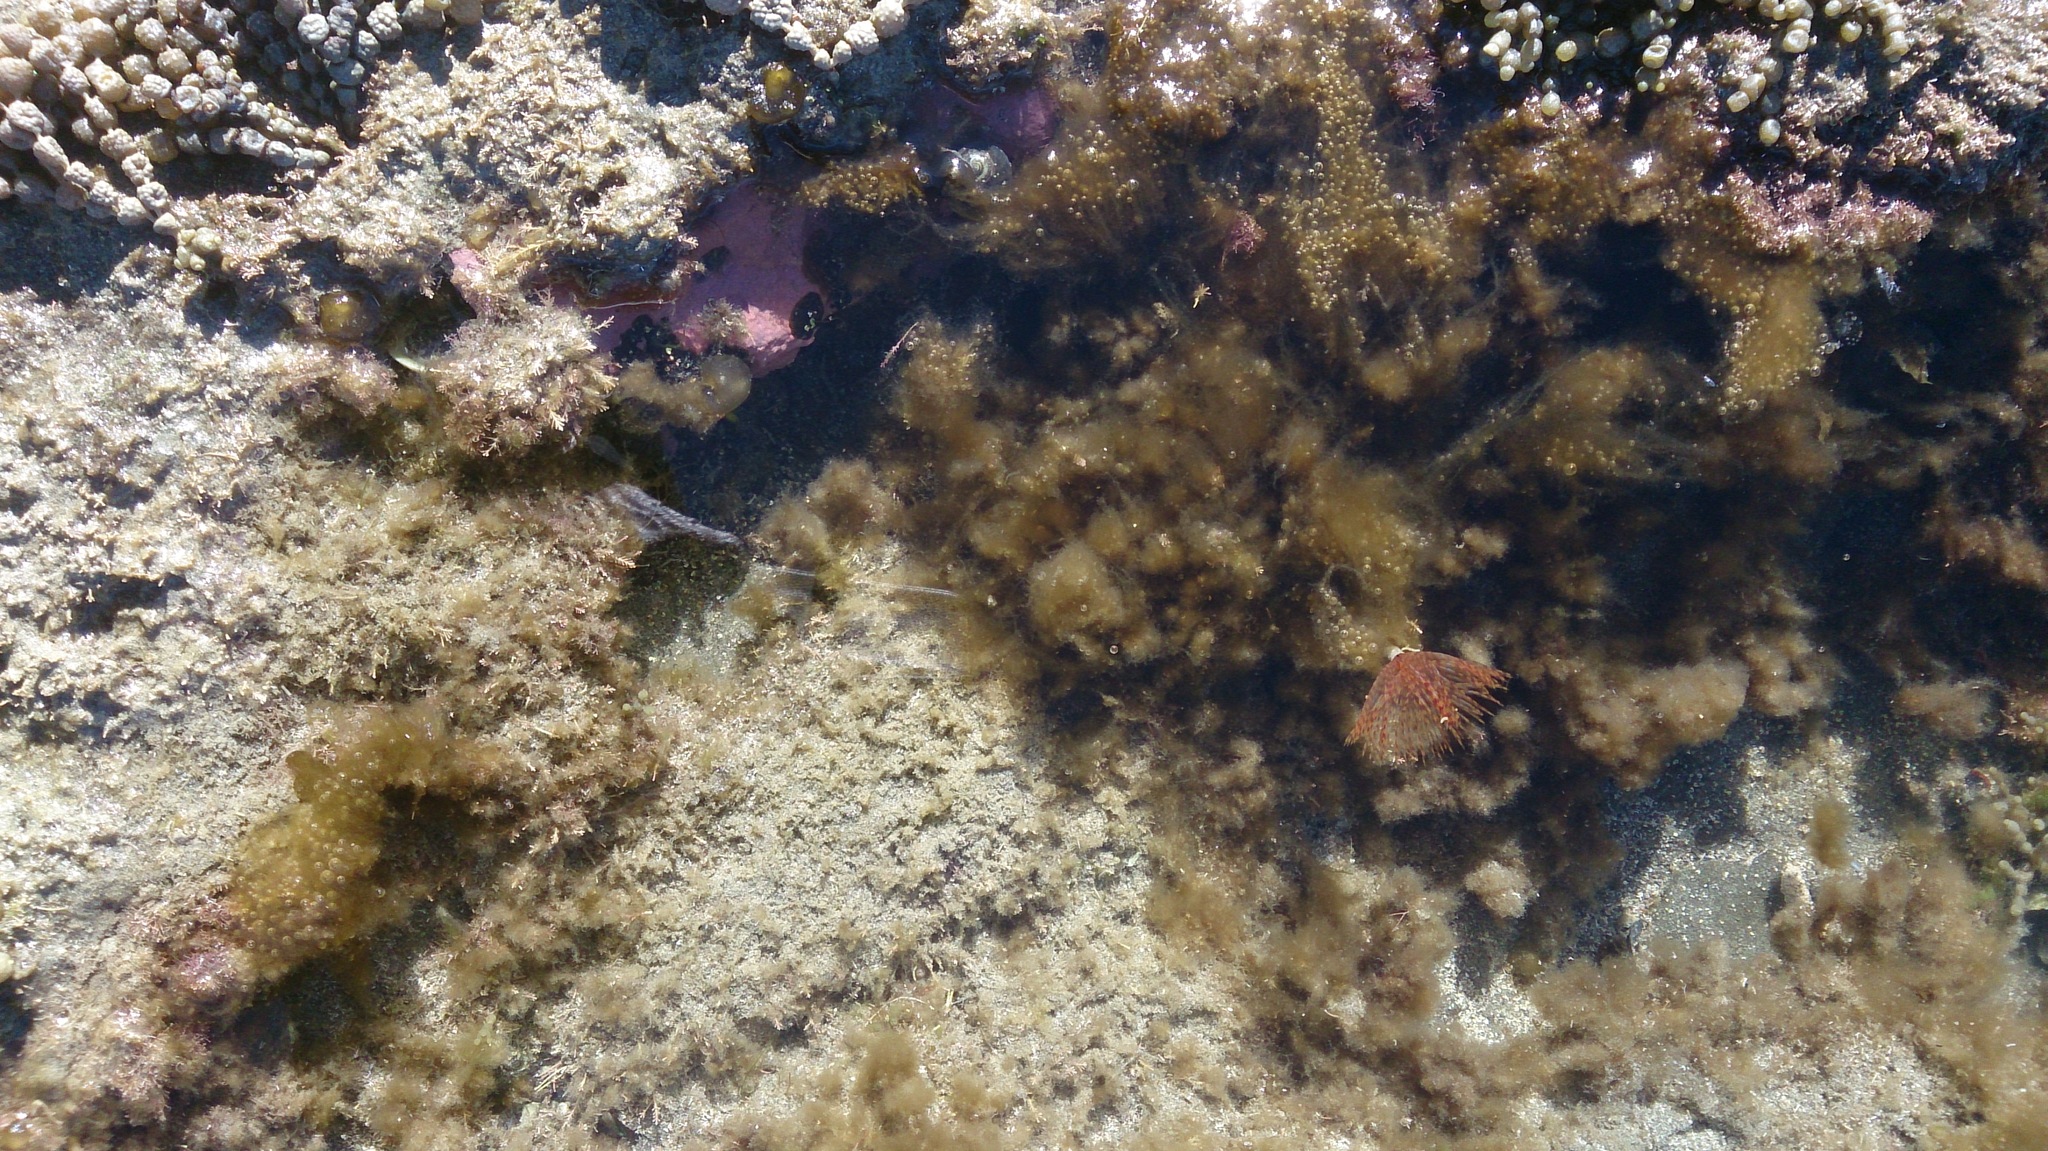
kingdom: Animalia
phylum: Annelida
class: Polychaeta
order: Sabellida
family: Sabellidae
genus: Sabella
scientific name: Sabella spallanzanii
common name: Feather duster worm
